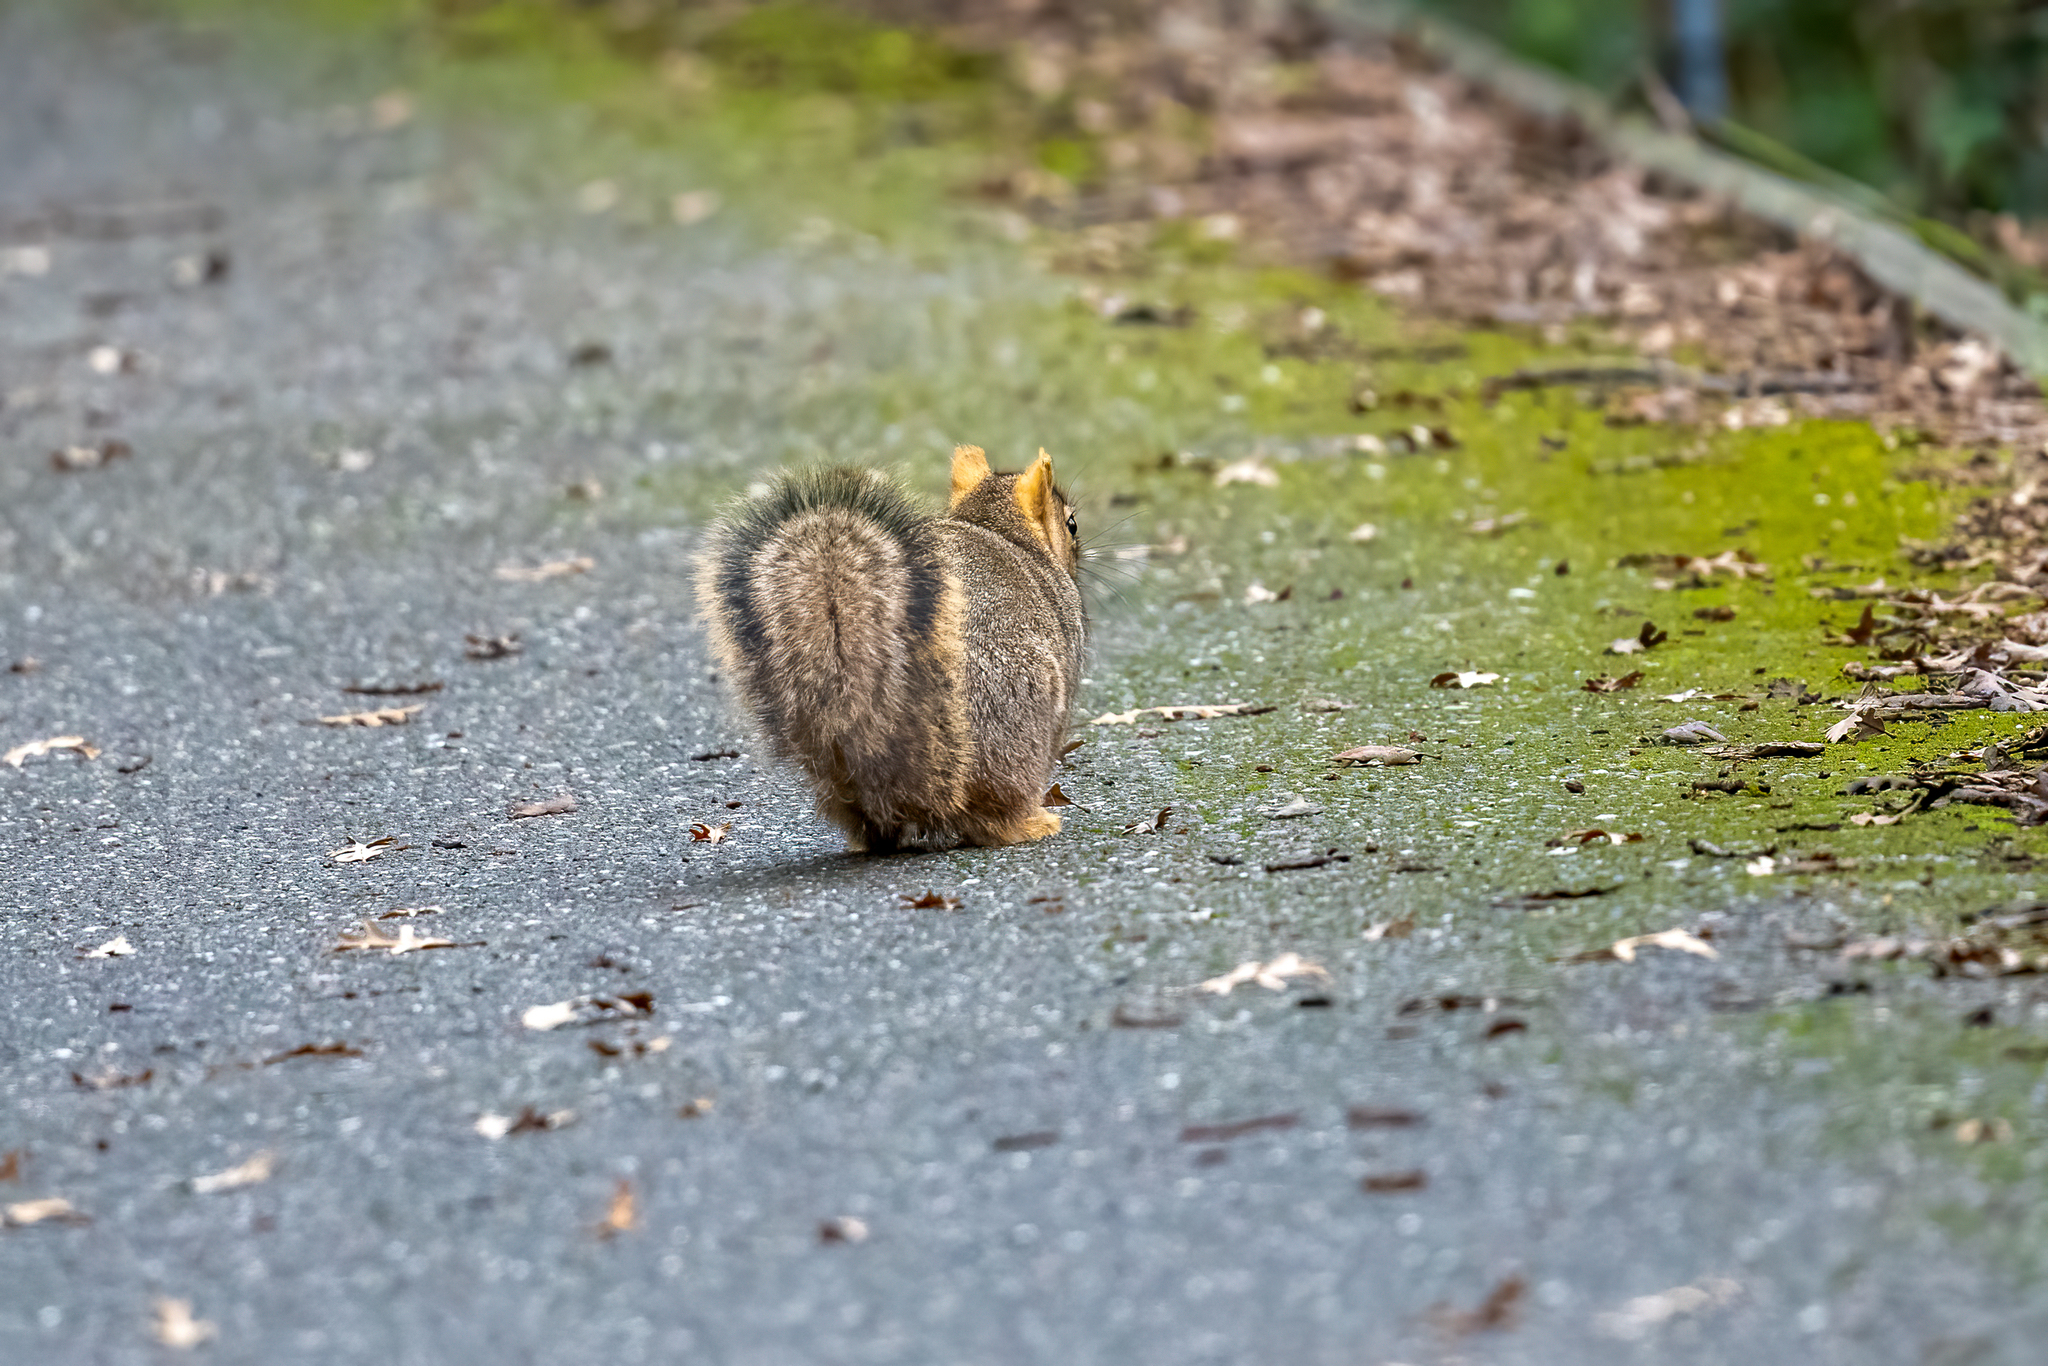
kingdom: Animalia
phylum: Chordata
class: Mammalia
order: Rodentia
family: Sciuridae
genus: Sciurus
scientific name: Sciurus niger
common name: Fox squirrel
